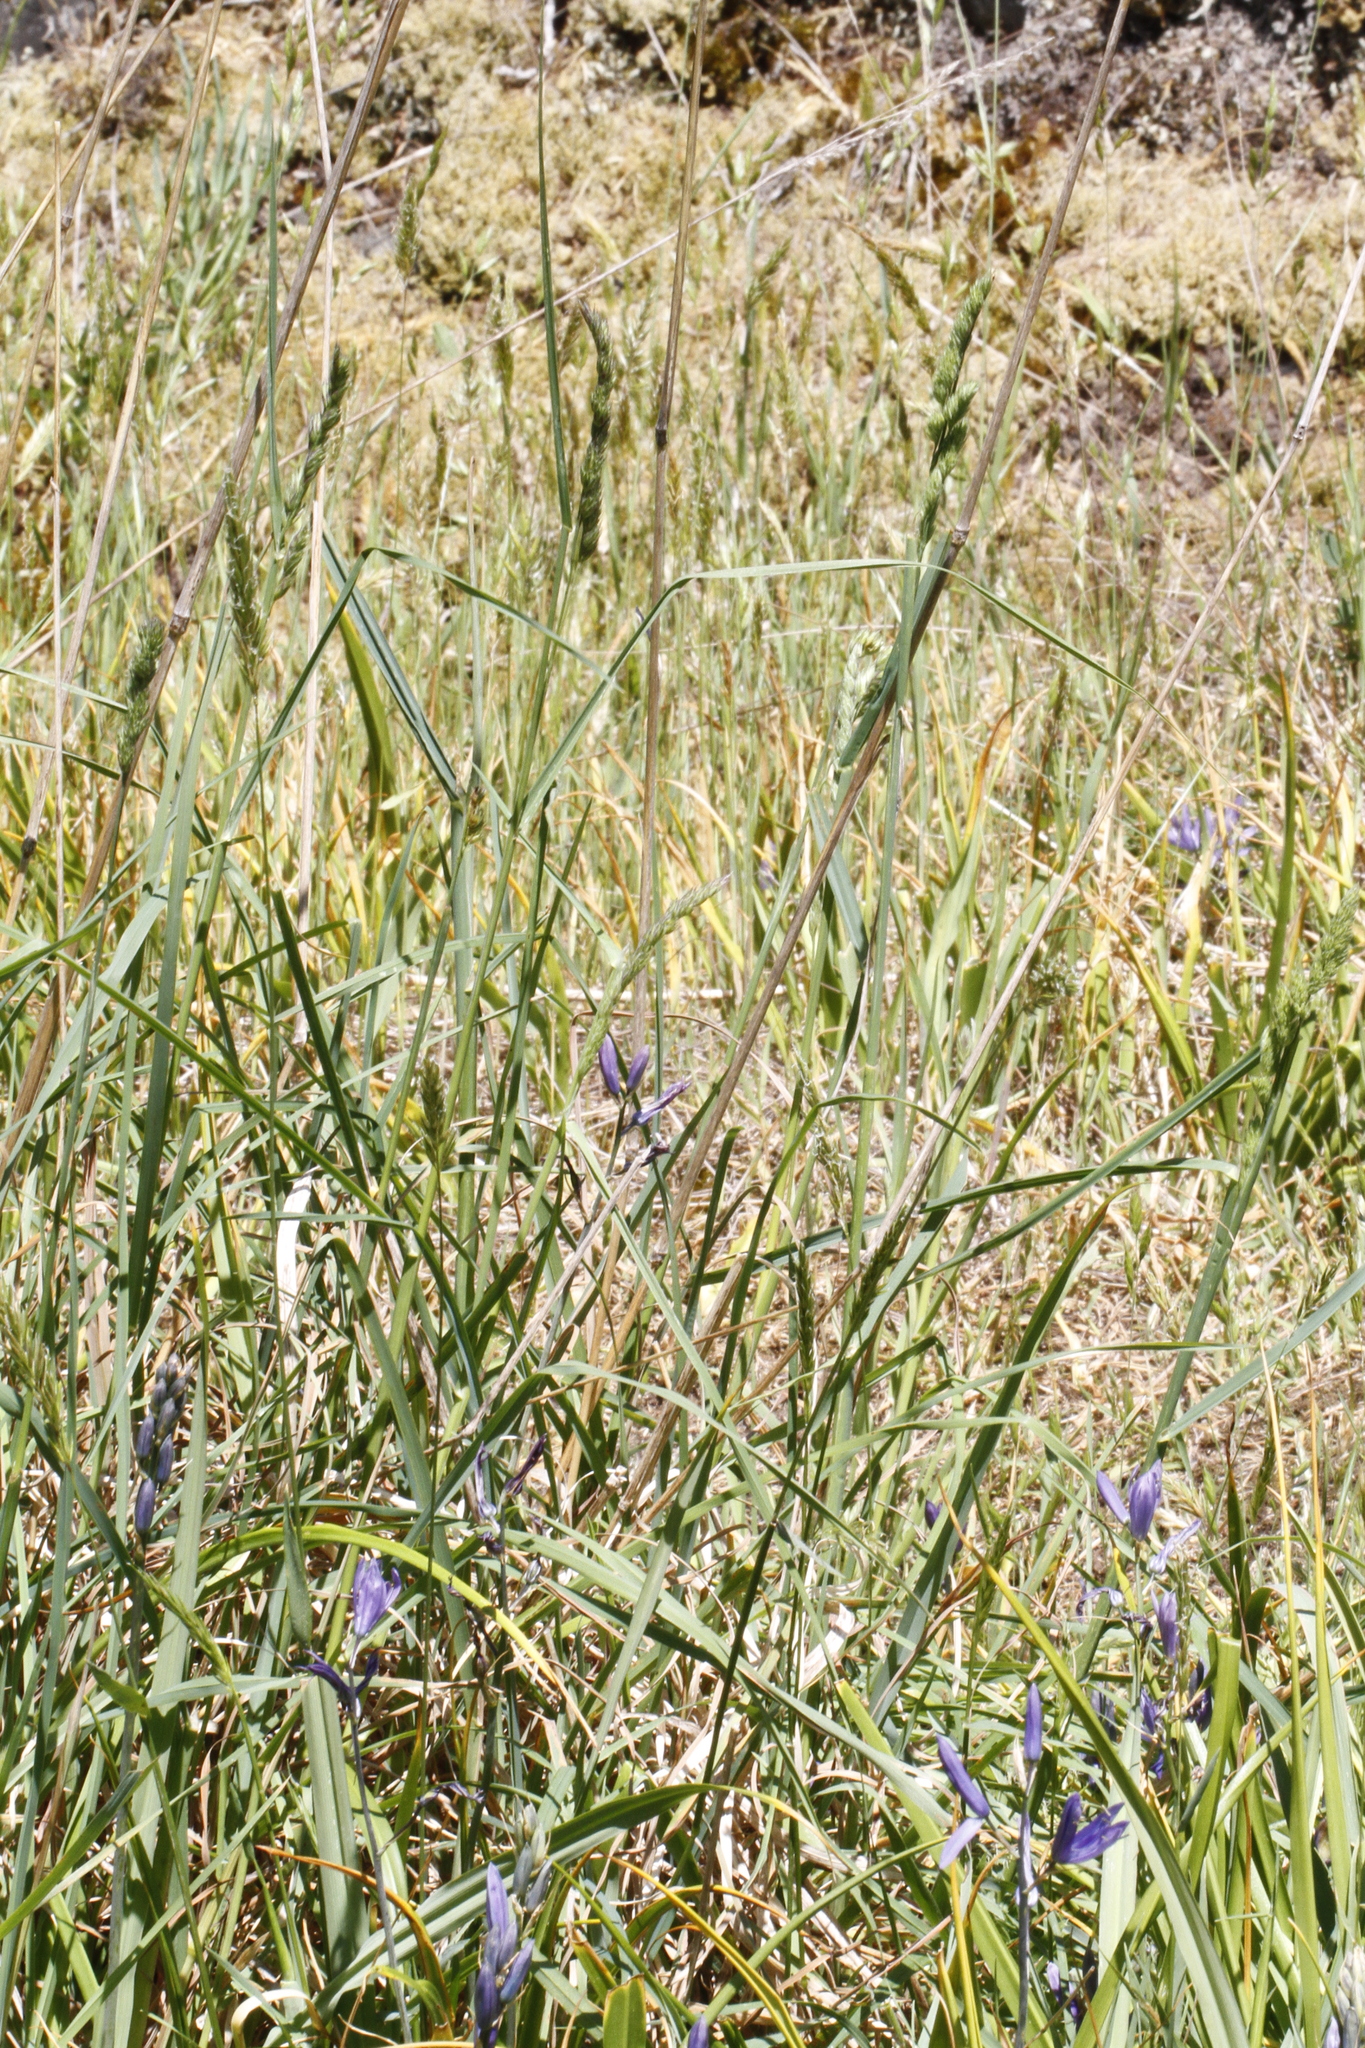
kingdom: Plantae
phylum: Tracheophyta
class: Liliopsida
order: Poales
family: Poaceae
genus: Dactylis
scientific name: Dactylis glomerata
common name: Orchardgrass
